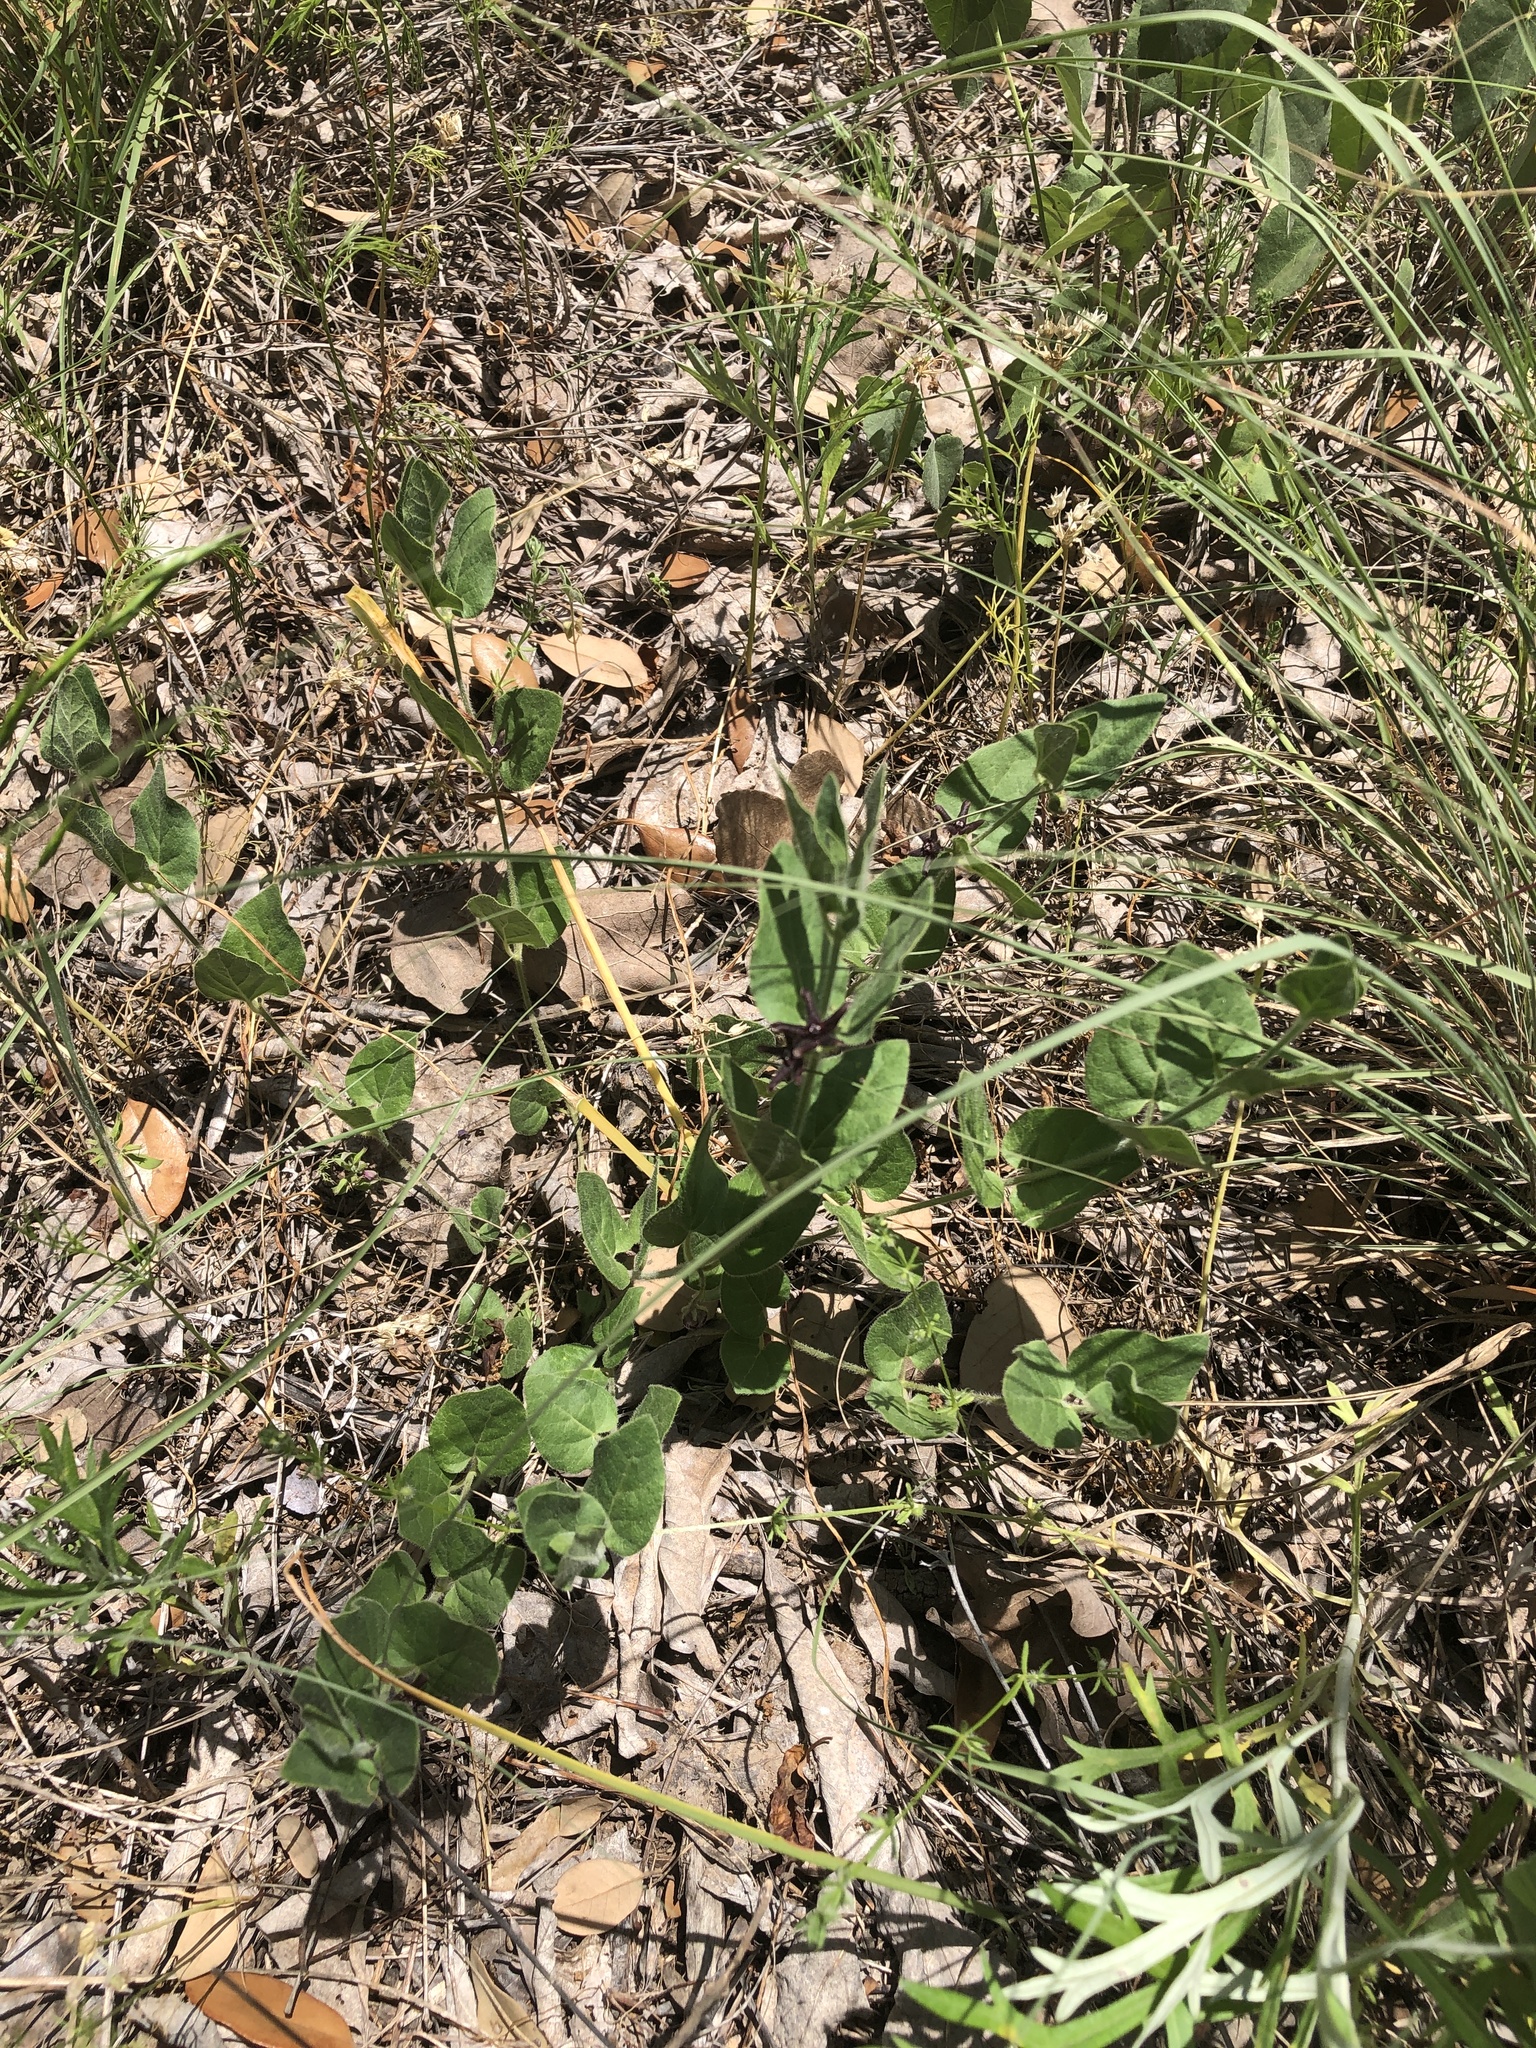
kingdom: Plantae
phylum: Tracheophyta
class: Magnoliopsida
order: Gentianales
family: Apocynaceae
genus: Chthamalia
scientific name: Chthamalia biflora
